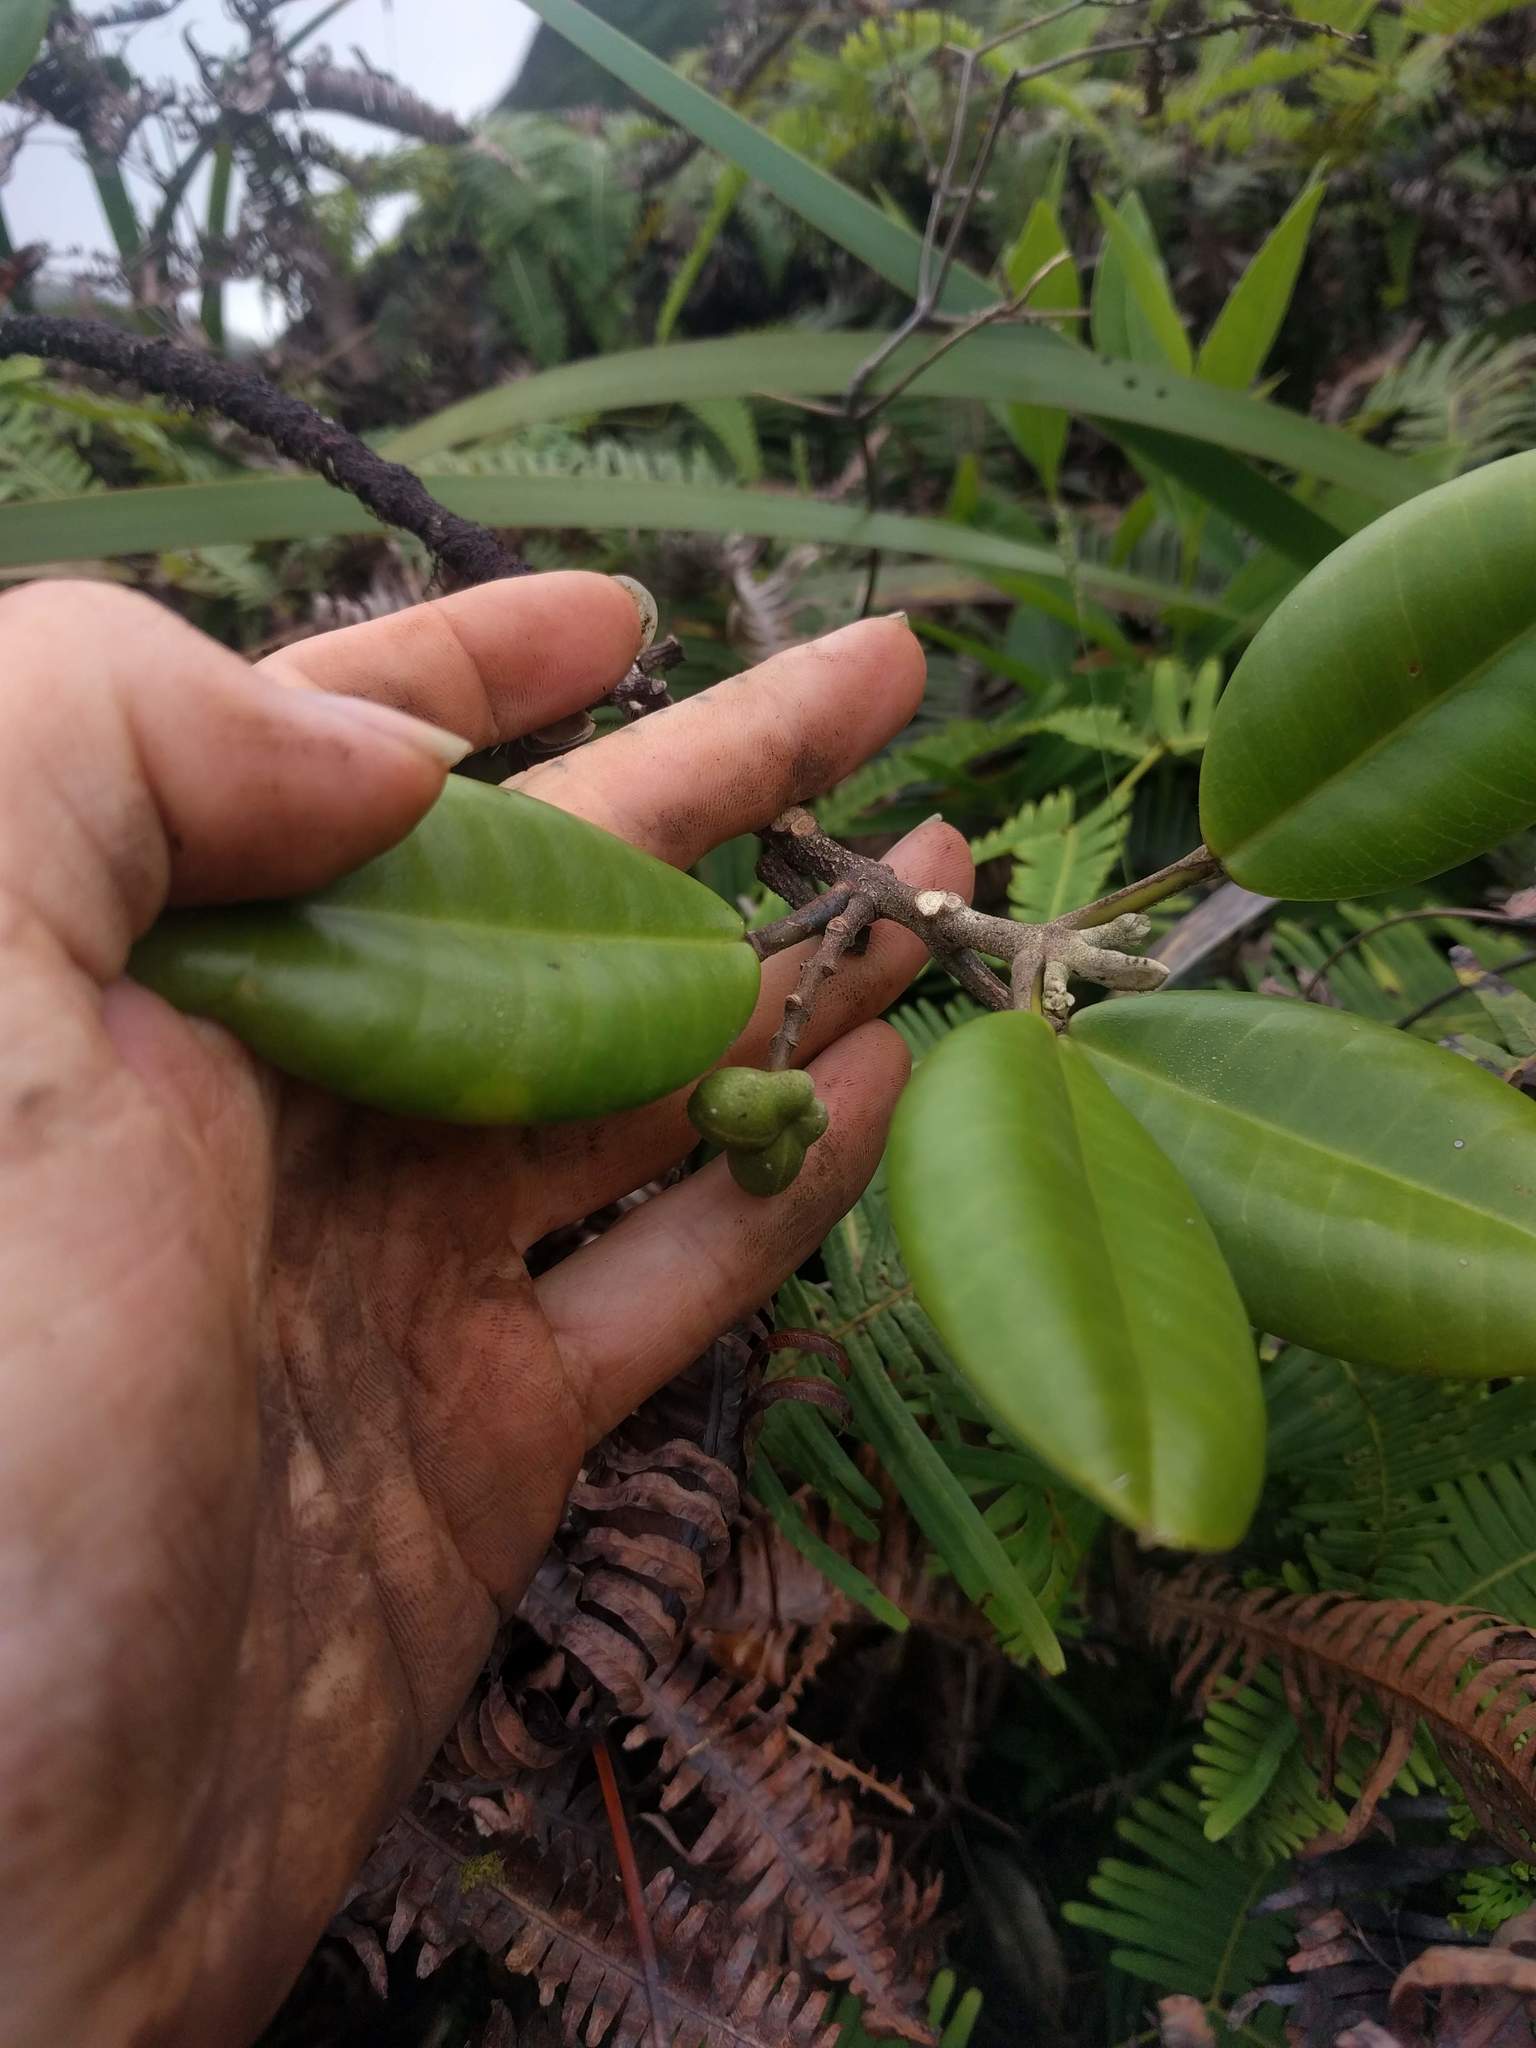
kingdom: Plantae
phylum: Tracheophyta
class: Magnoliopsida
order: Sapindales
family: Rutaceae
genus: Melicope
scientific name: Melicope hosakae
